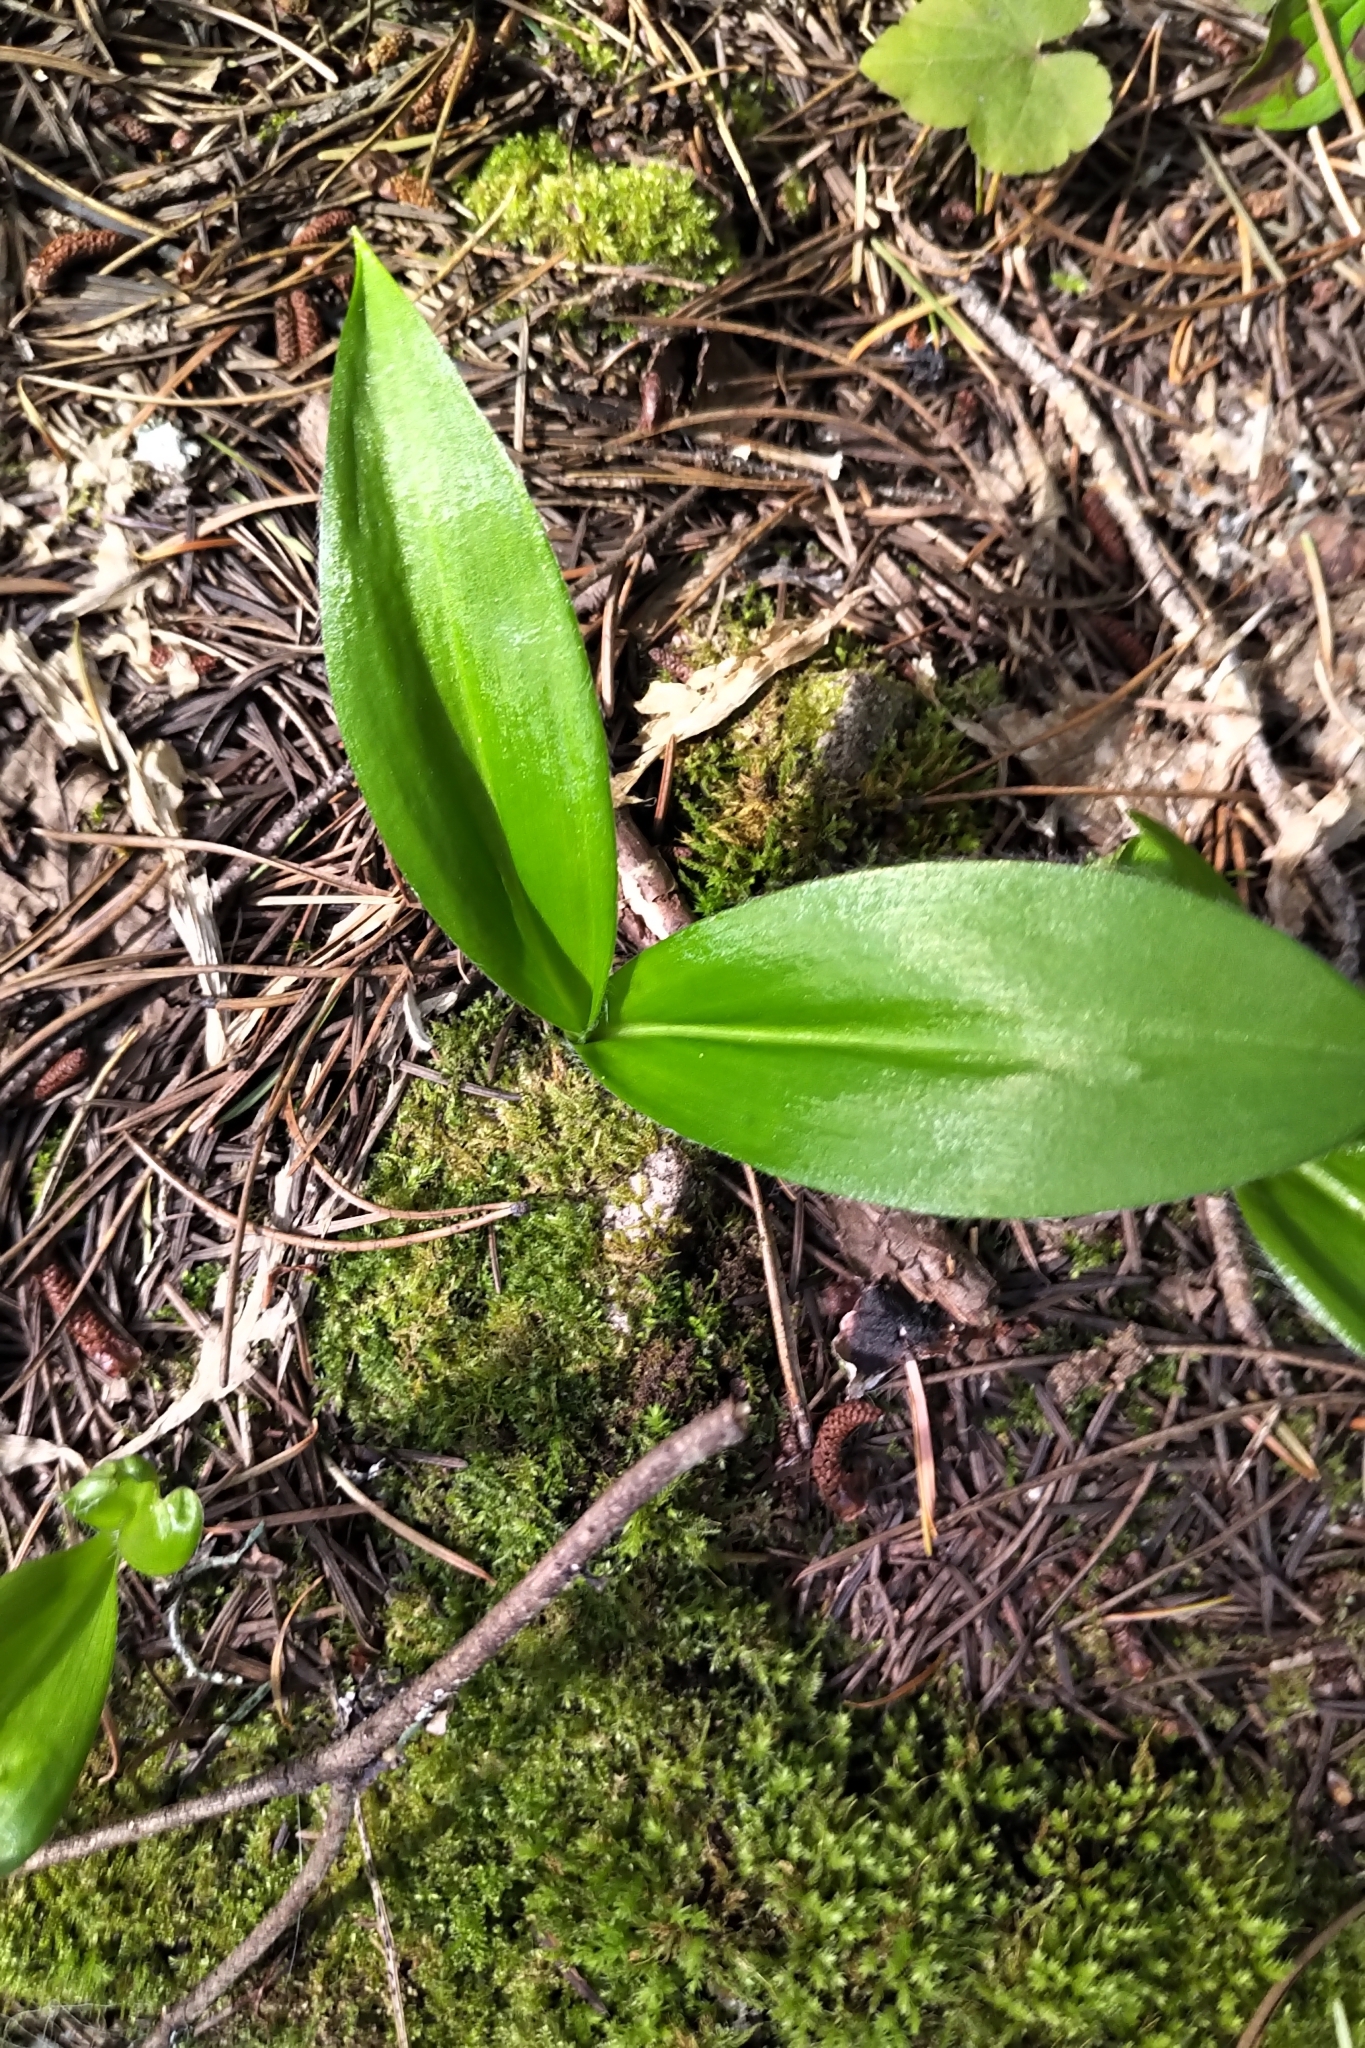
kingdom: Plantae
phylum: Tracheophyta
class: Liliopsida
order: Liliales
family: Liliaceae
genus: Clintonia
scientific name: Clintonia uniflora
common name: Queen's cup
